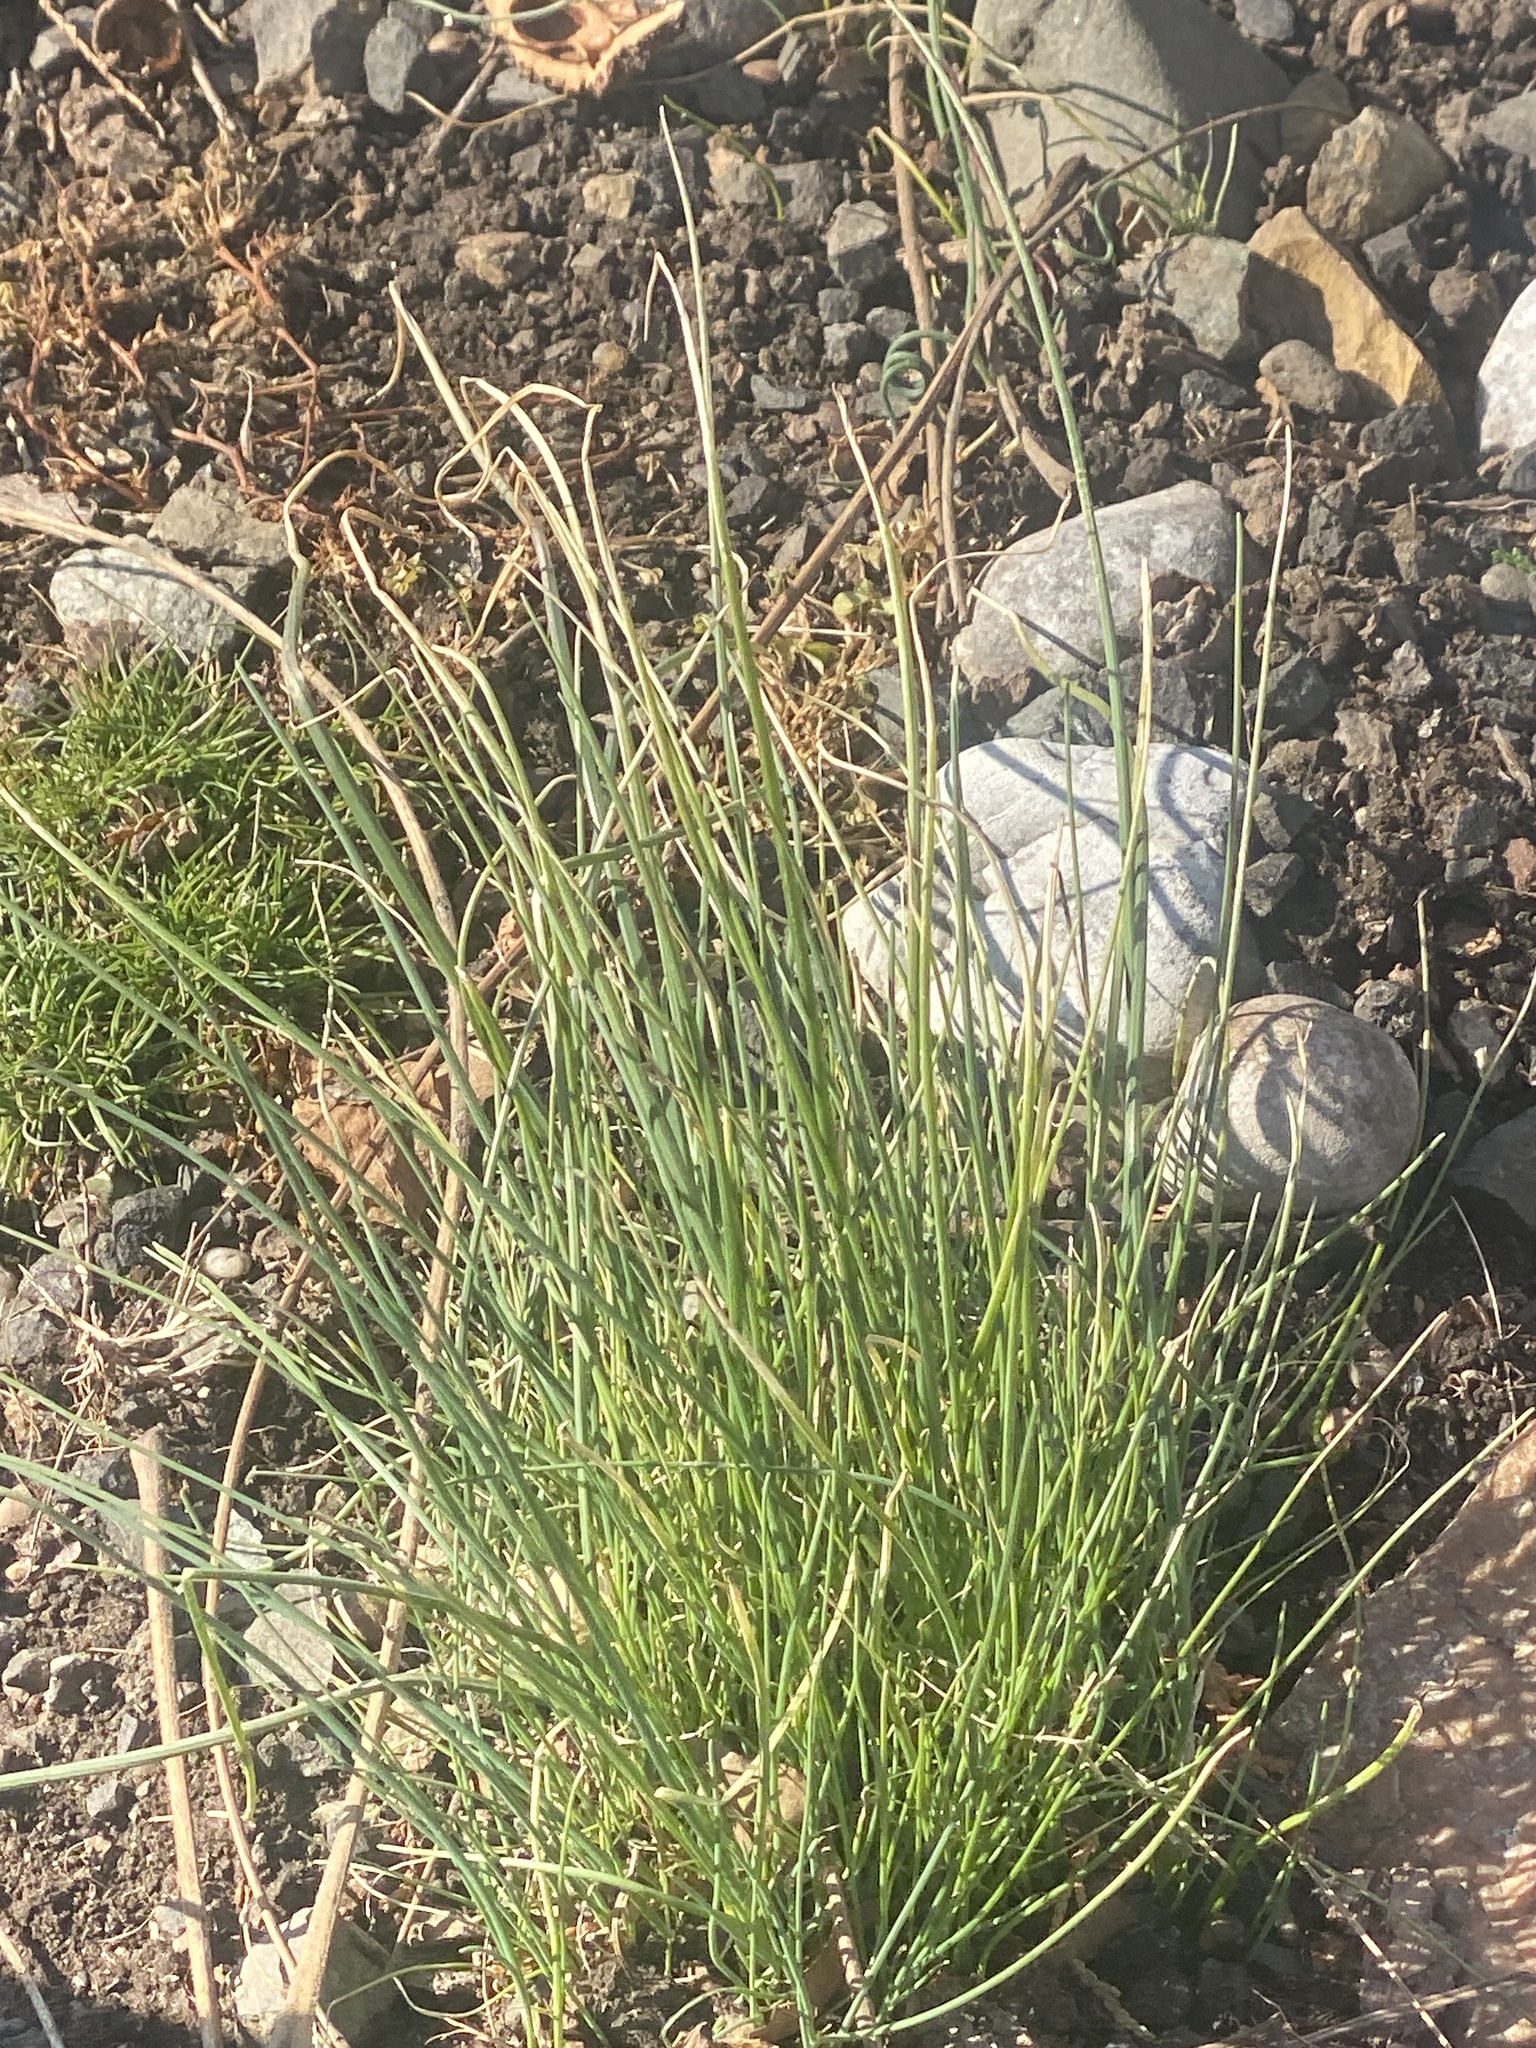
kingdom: Plantae
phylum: Tracheophyta
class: Liliopsida
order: Asparagales
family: Amaryllidaceae
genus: Allium
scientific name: Allium vineale
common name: Crow garlic
